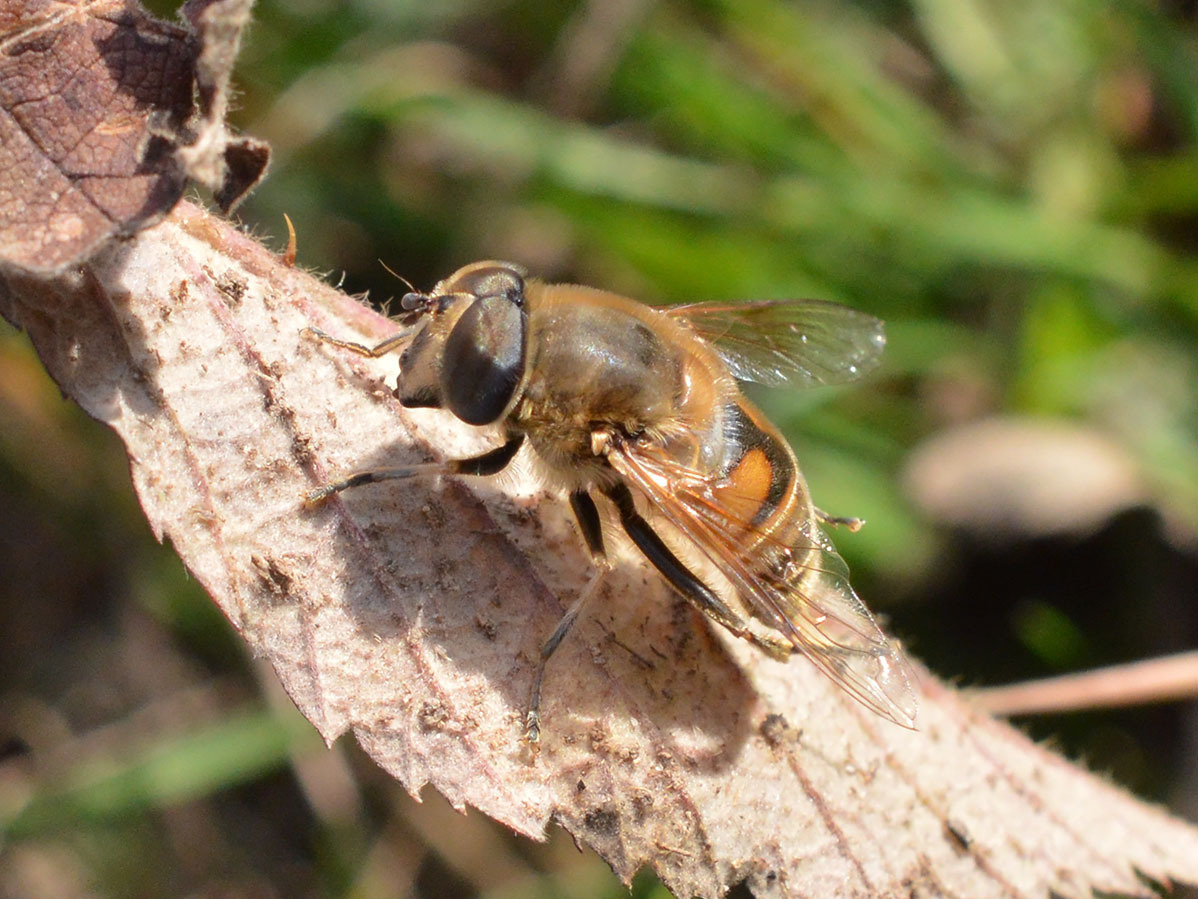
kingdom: Animalia
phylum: Arthropoda
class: Insecta
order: Diptera
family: Syrphidae
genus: Eristalis
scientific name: Eristalis tenax
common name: Drone fly
